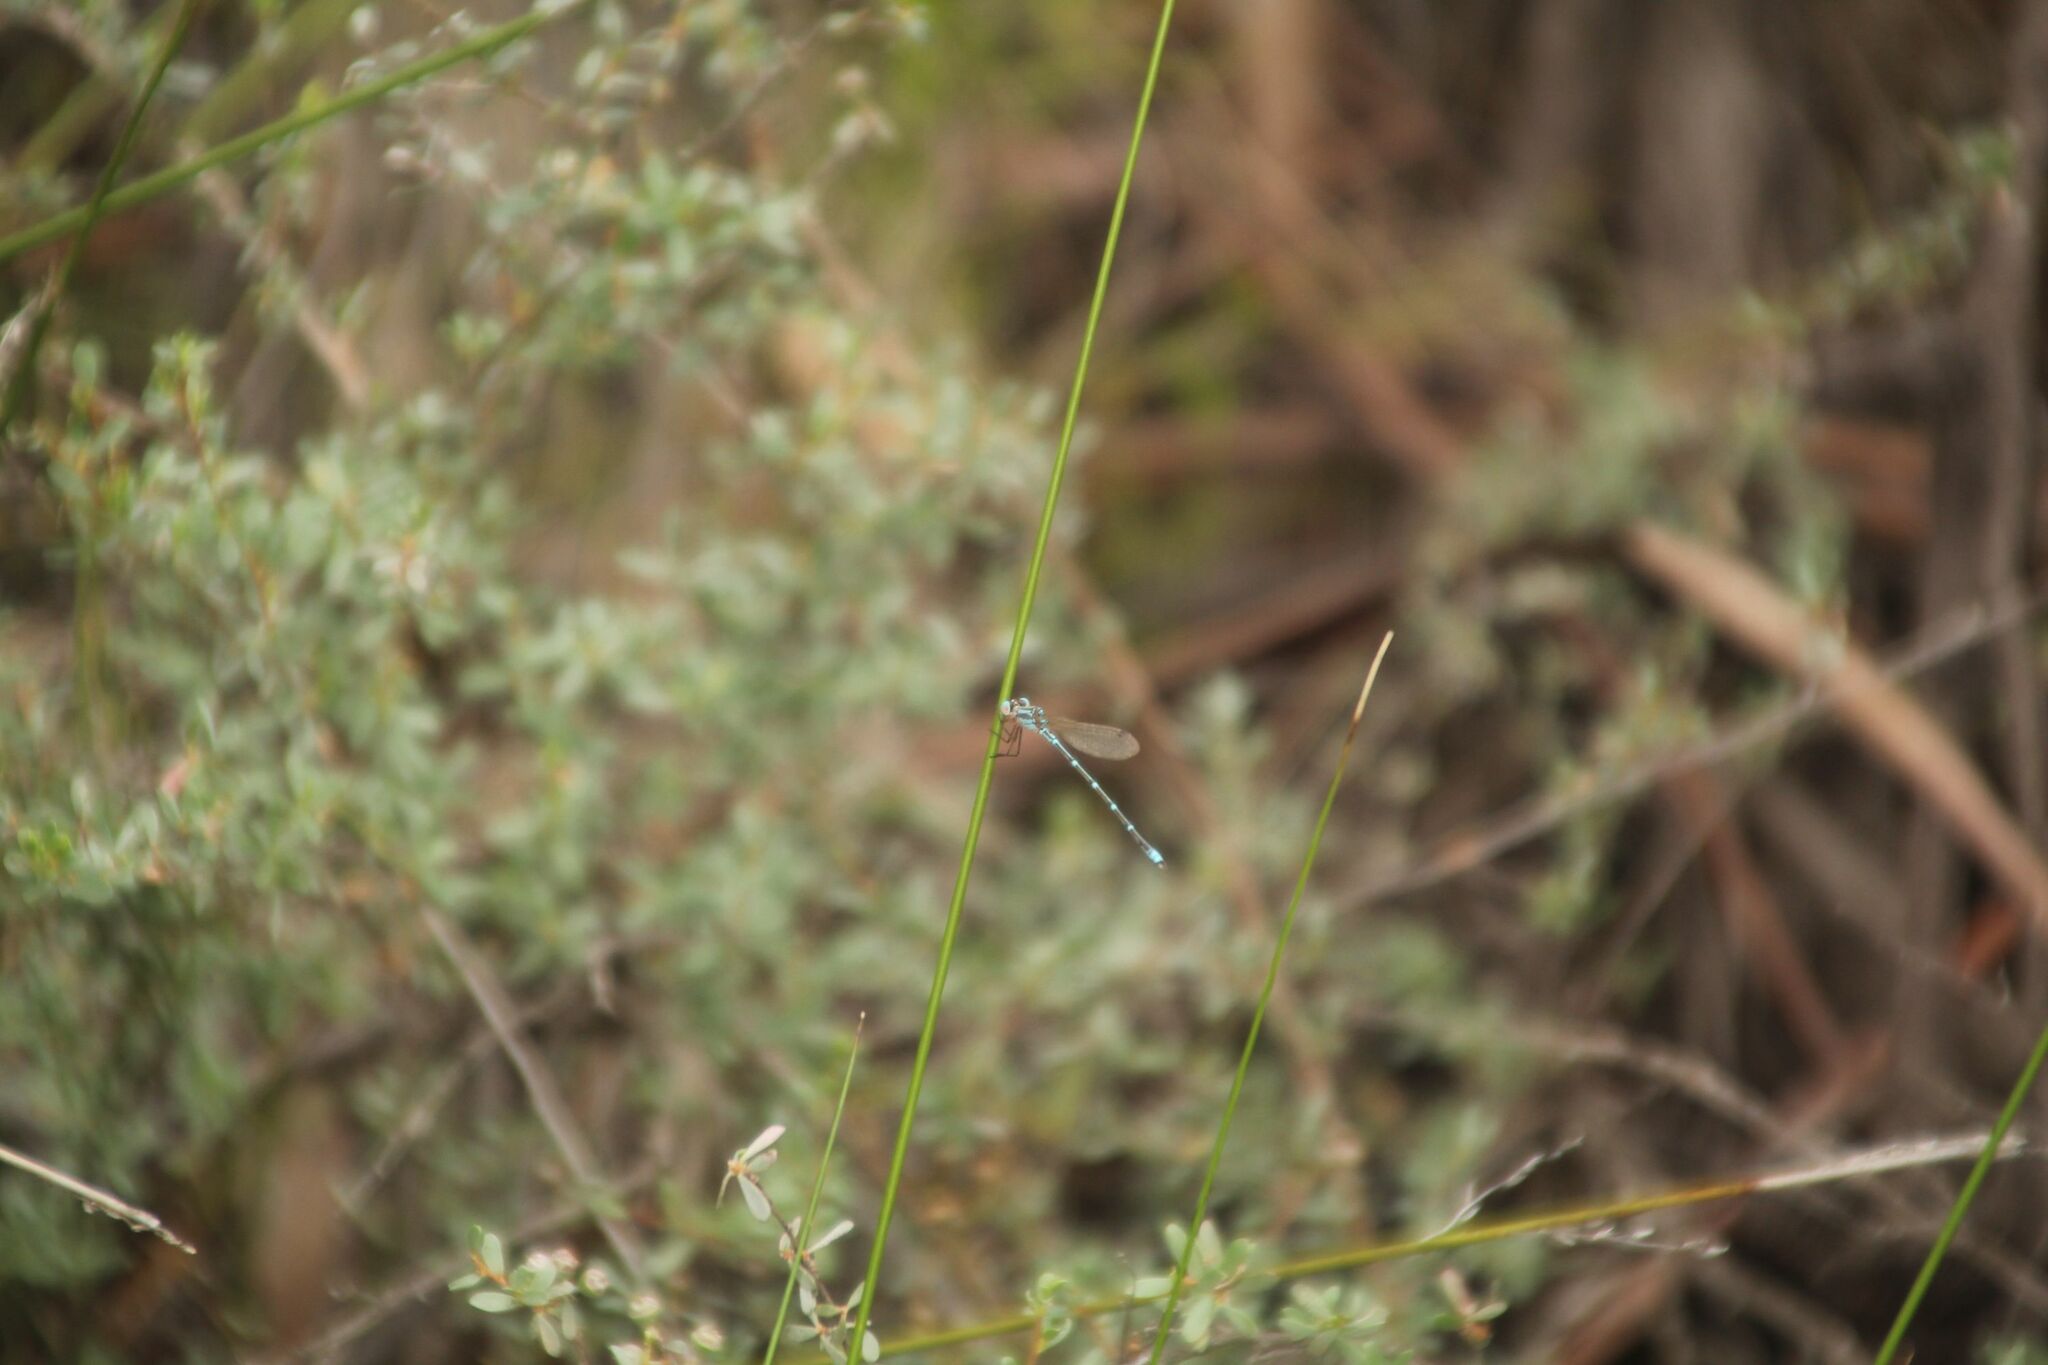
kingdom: Animalia
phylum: Arthropoda
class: Insecta
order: Odonata
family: Lestidae
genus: Austrolestes
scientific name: Austrolestes aridus
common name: Inland ringtail
